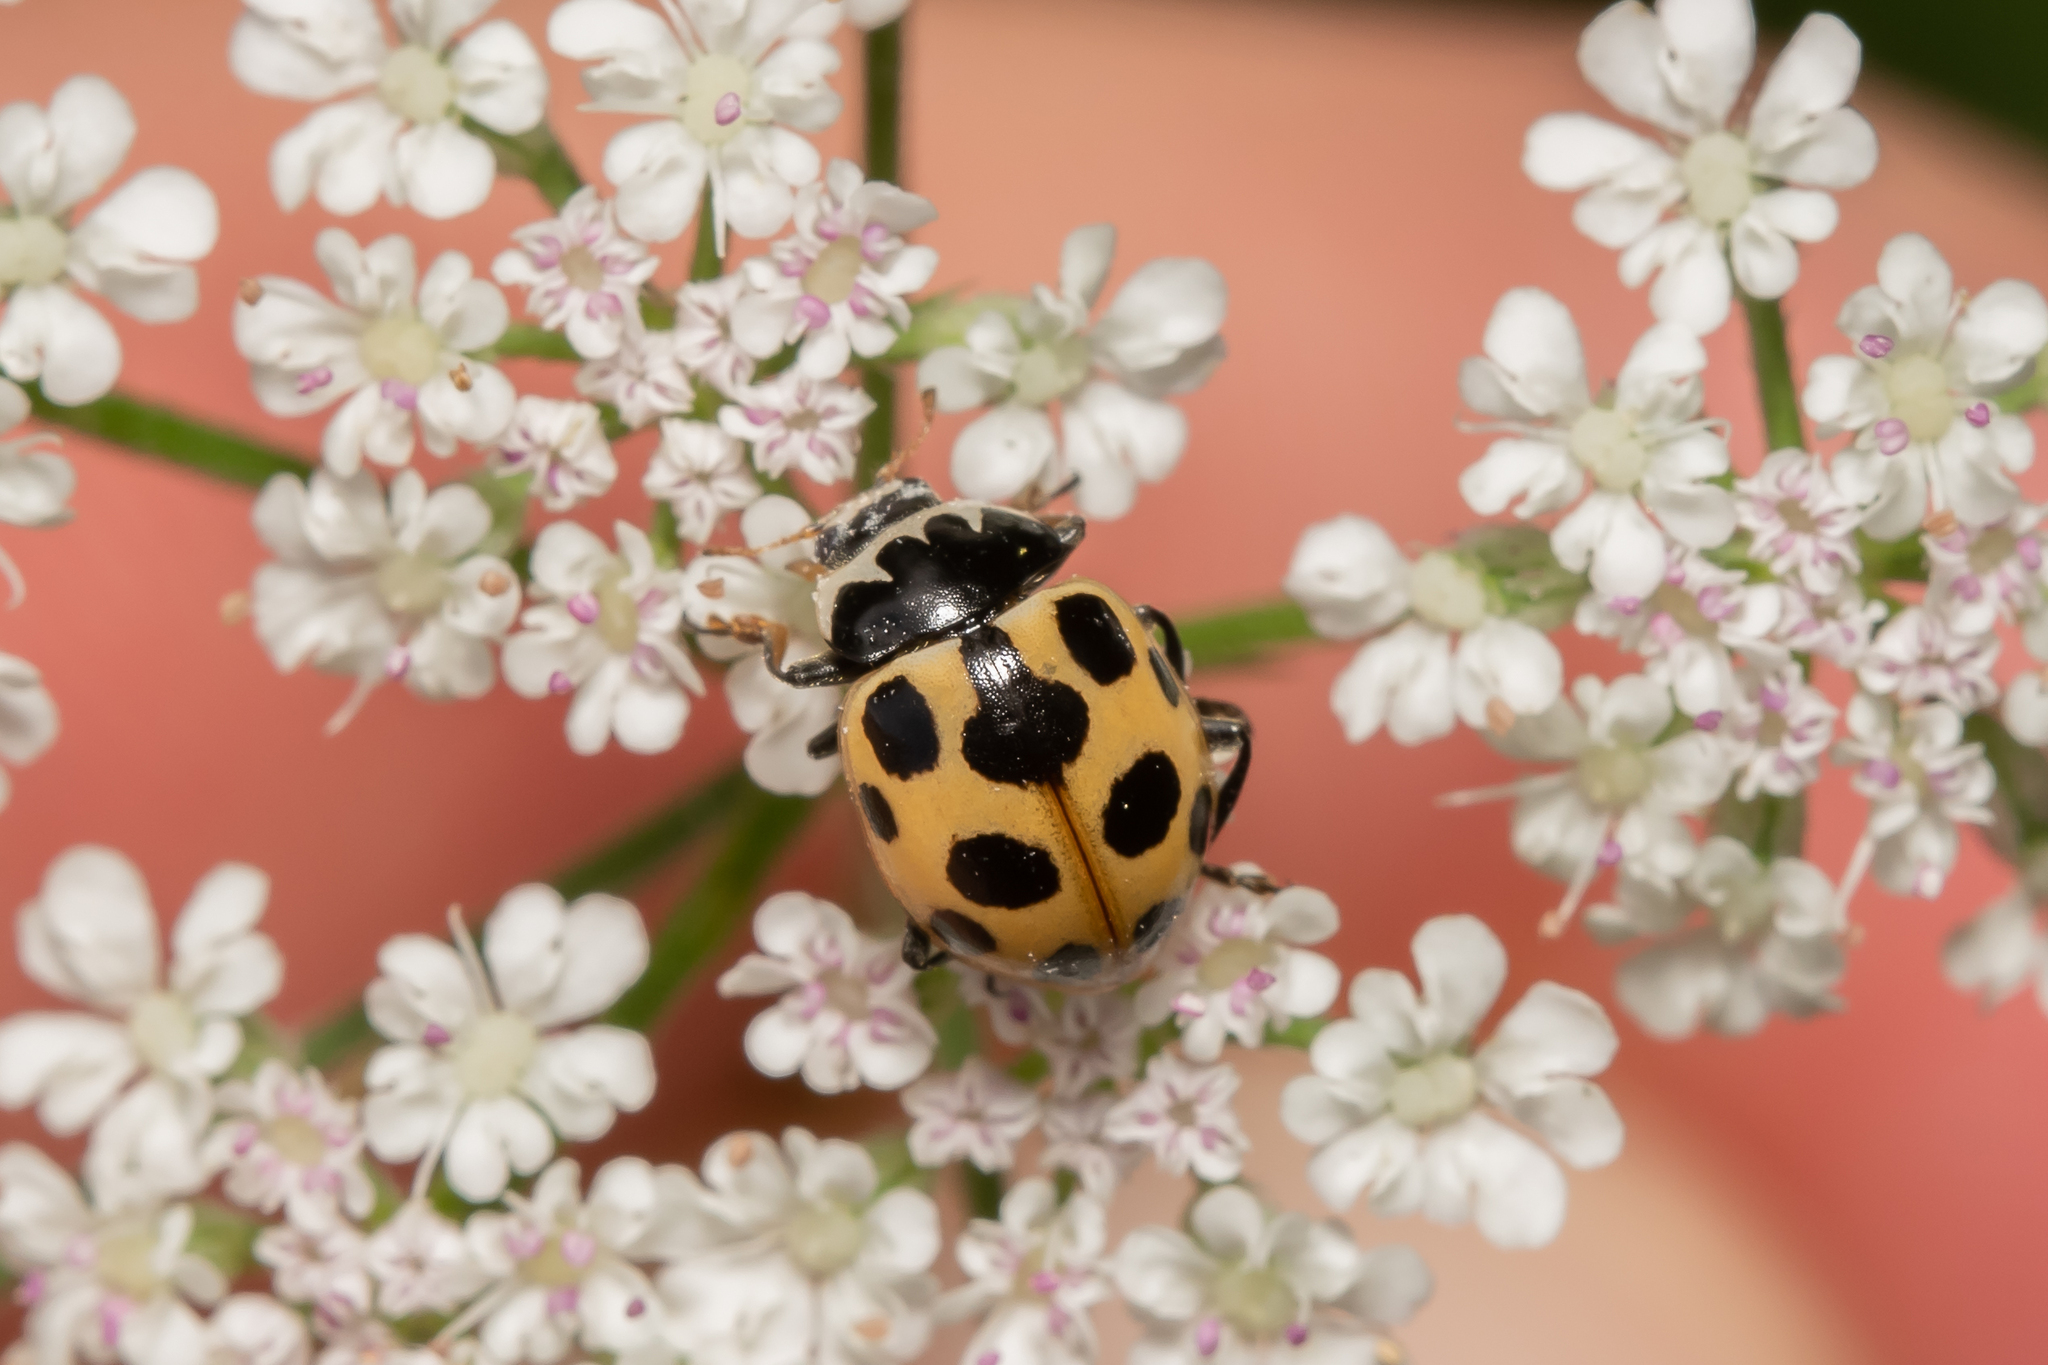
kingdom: Animalia
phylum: Arthropoda
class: Insecta
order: Coleoptera
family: Coccinellidae
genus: Ceratomegilla
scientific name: Ceratomegilla notata
